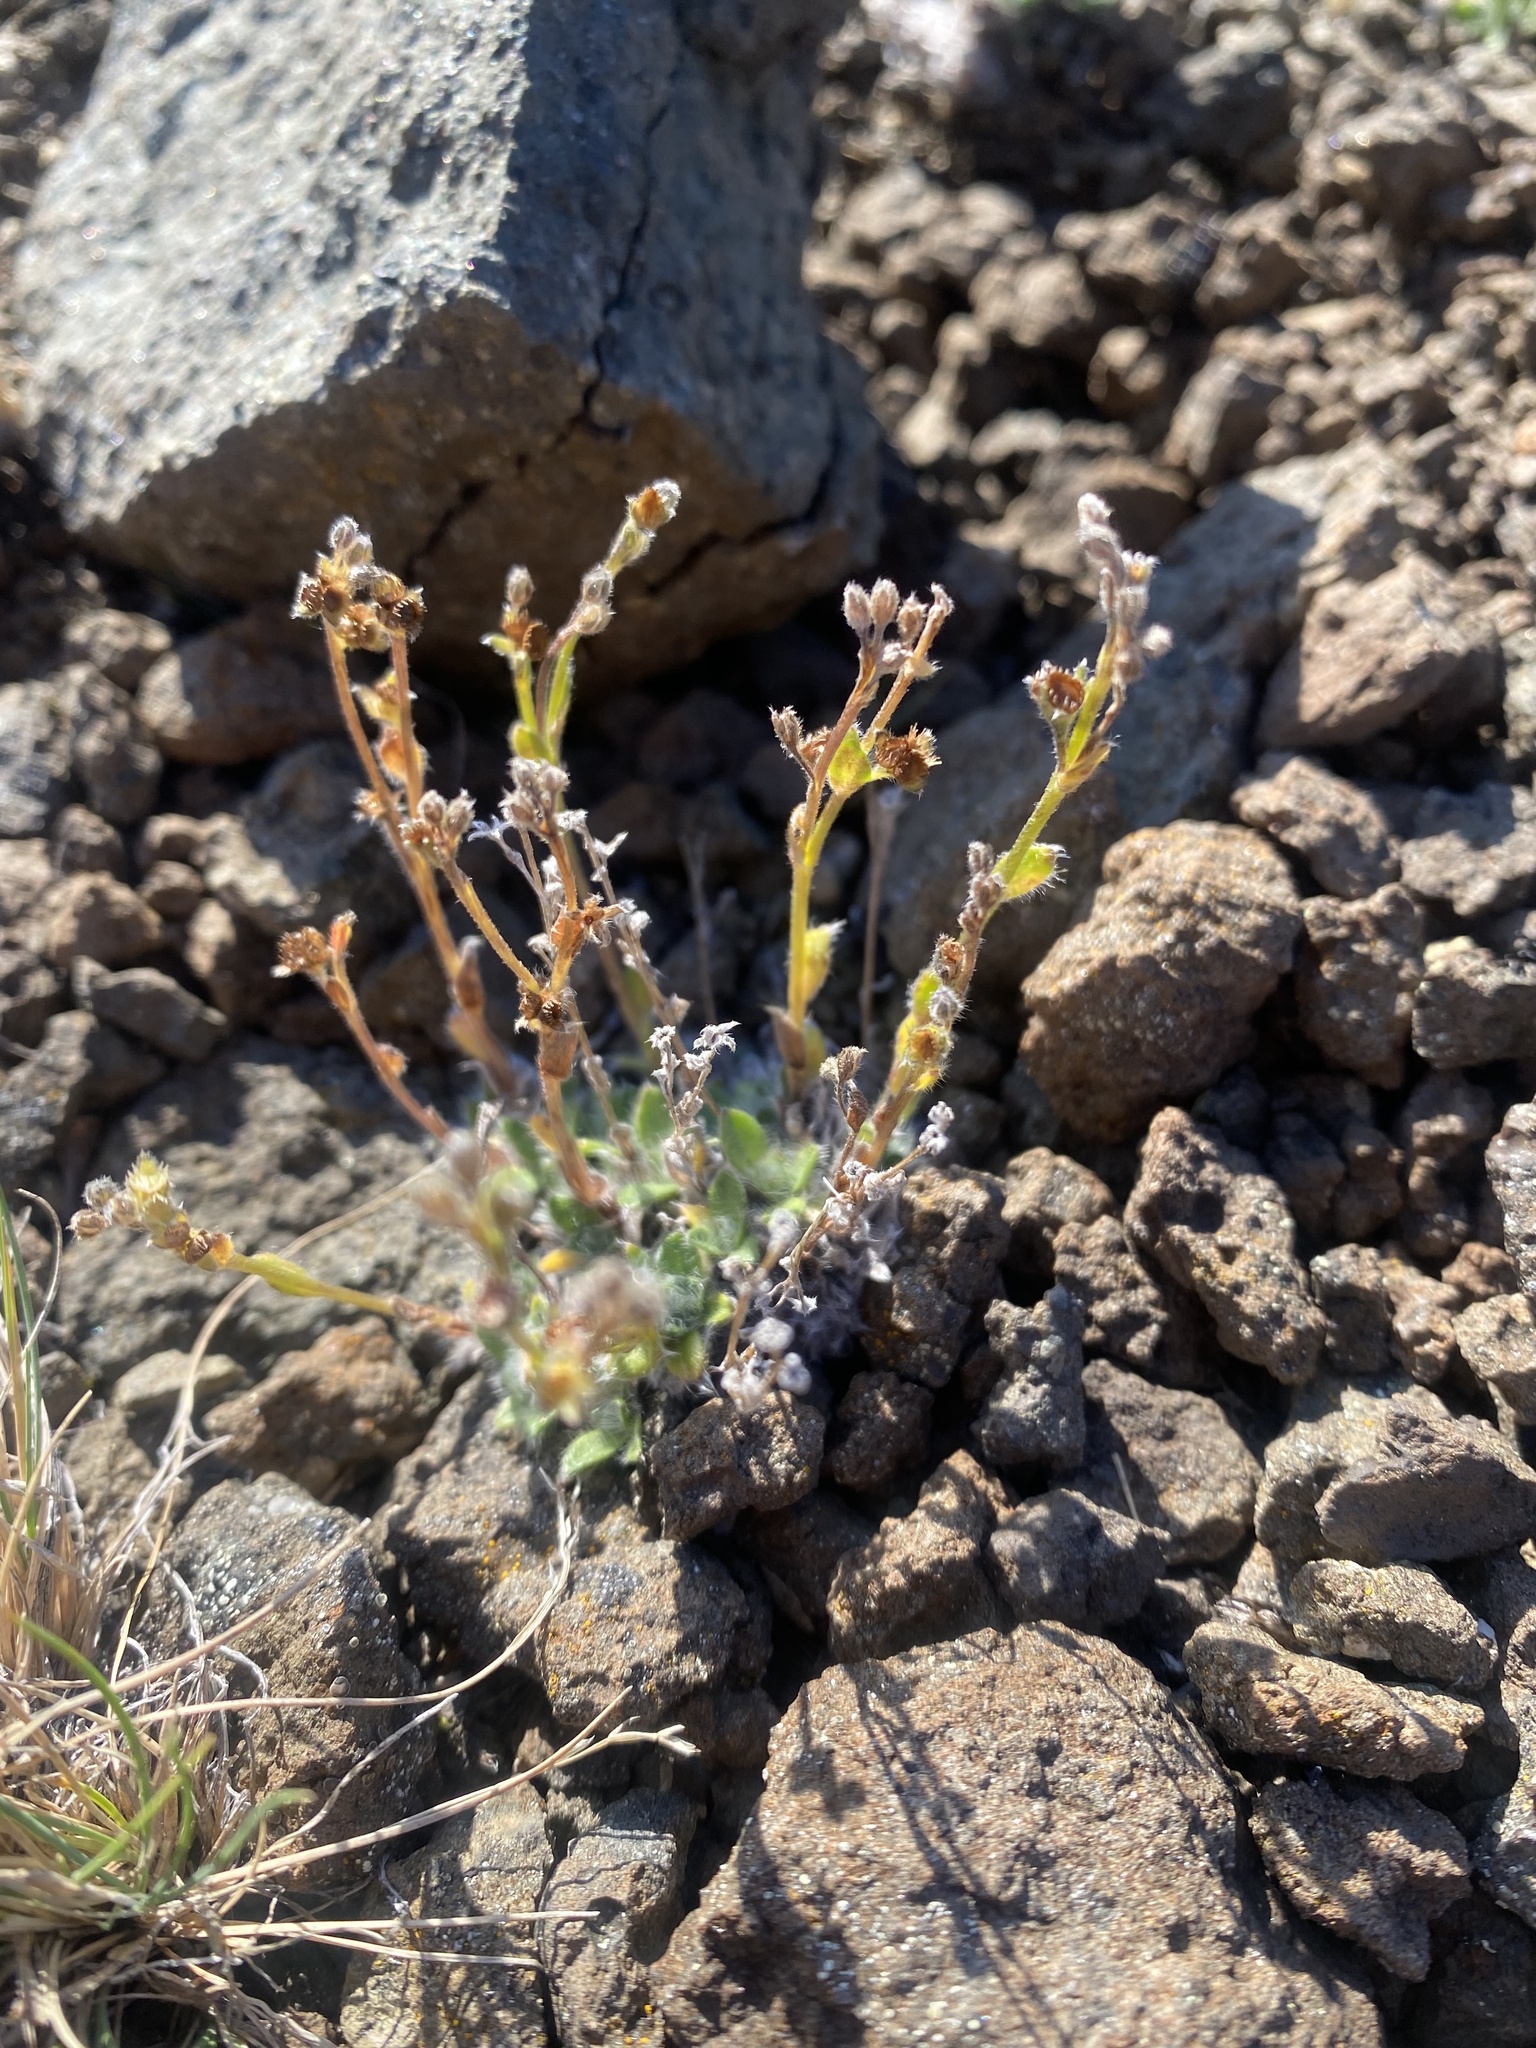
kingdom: Plantae
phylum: Tracheophyta
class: Magnoliopsida
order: Boraginales
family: Boraginaceae
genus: Eritrichium
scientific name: Eritrichium villosum
